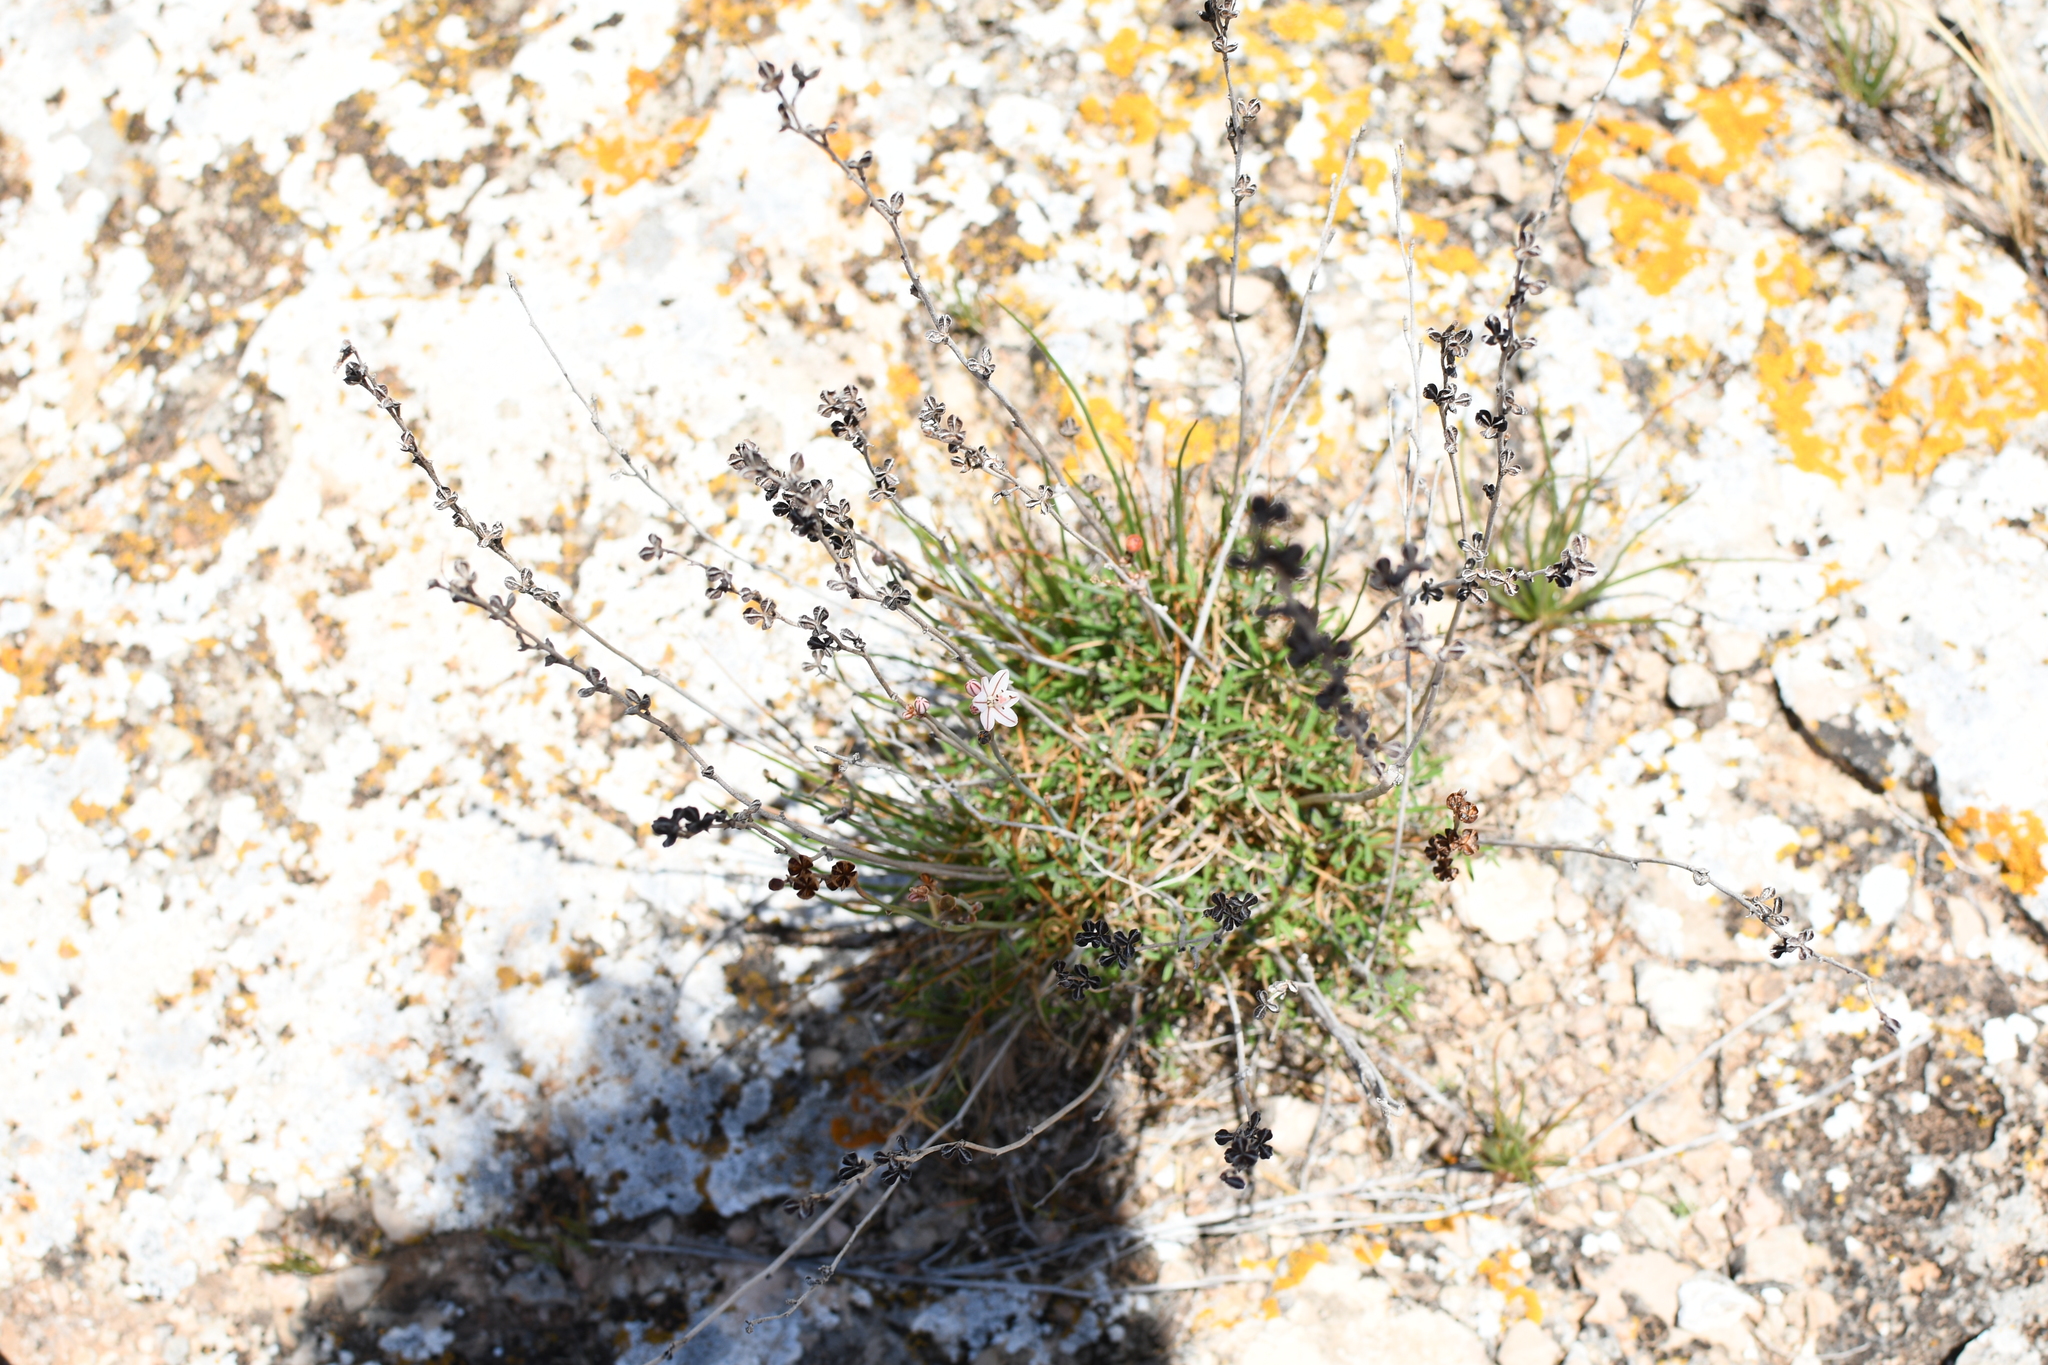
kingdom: Plantae
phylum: Tracheophyta
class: Liliopsida
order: Asparagales
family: Asphodelaceae
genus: Asphodelus
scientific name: Asphodelus fistulosus
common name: Onionweed
